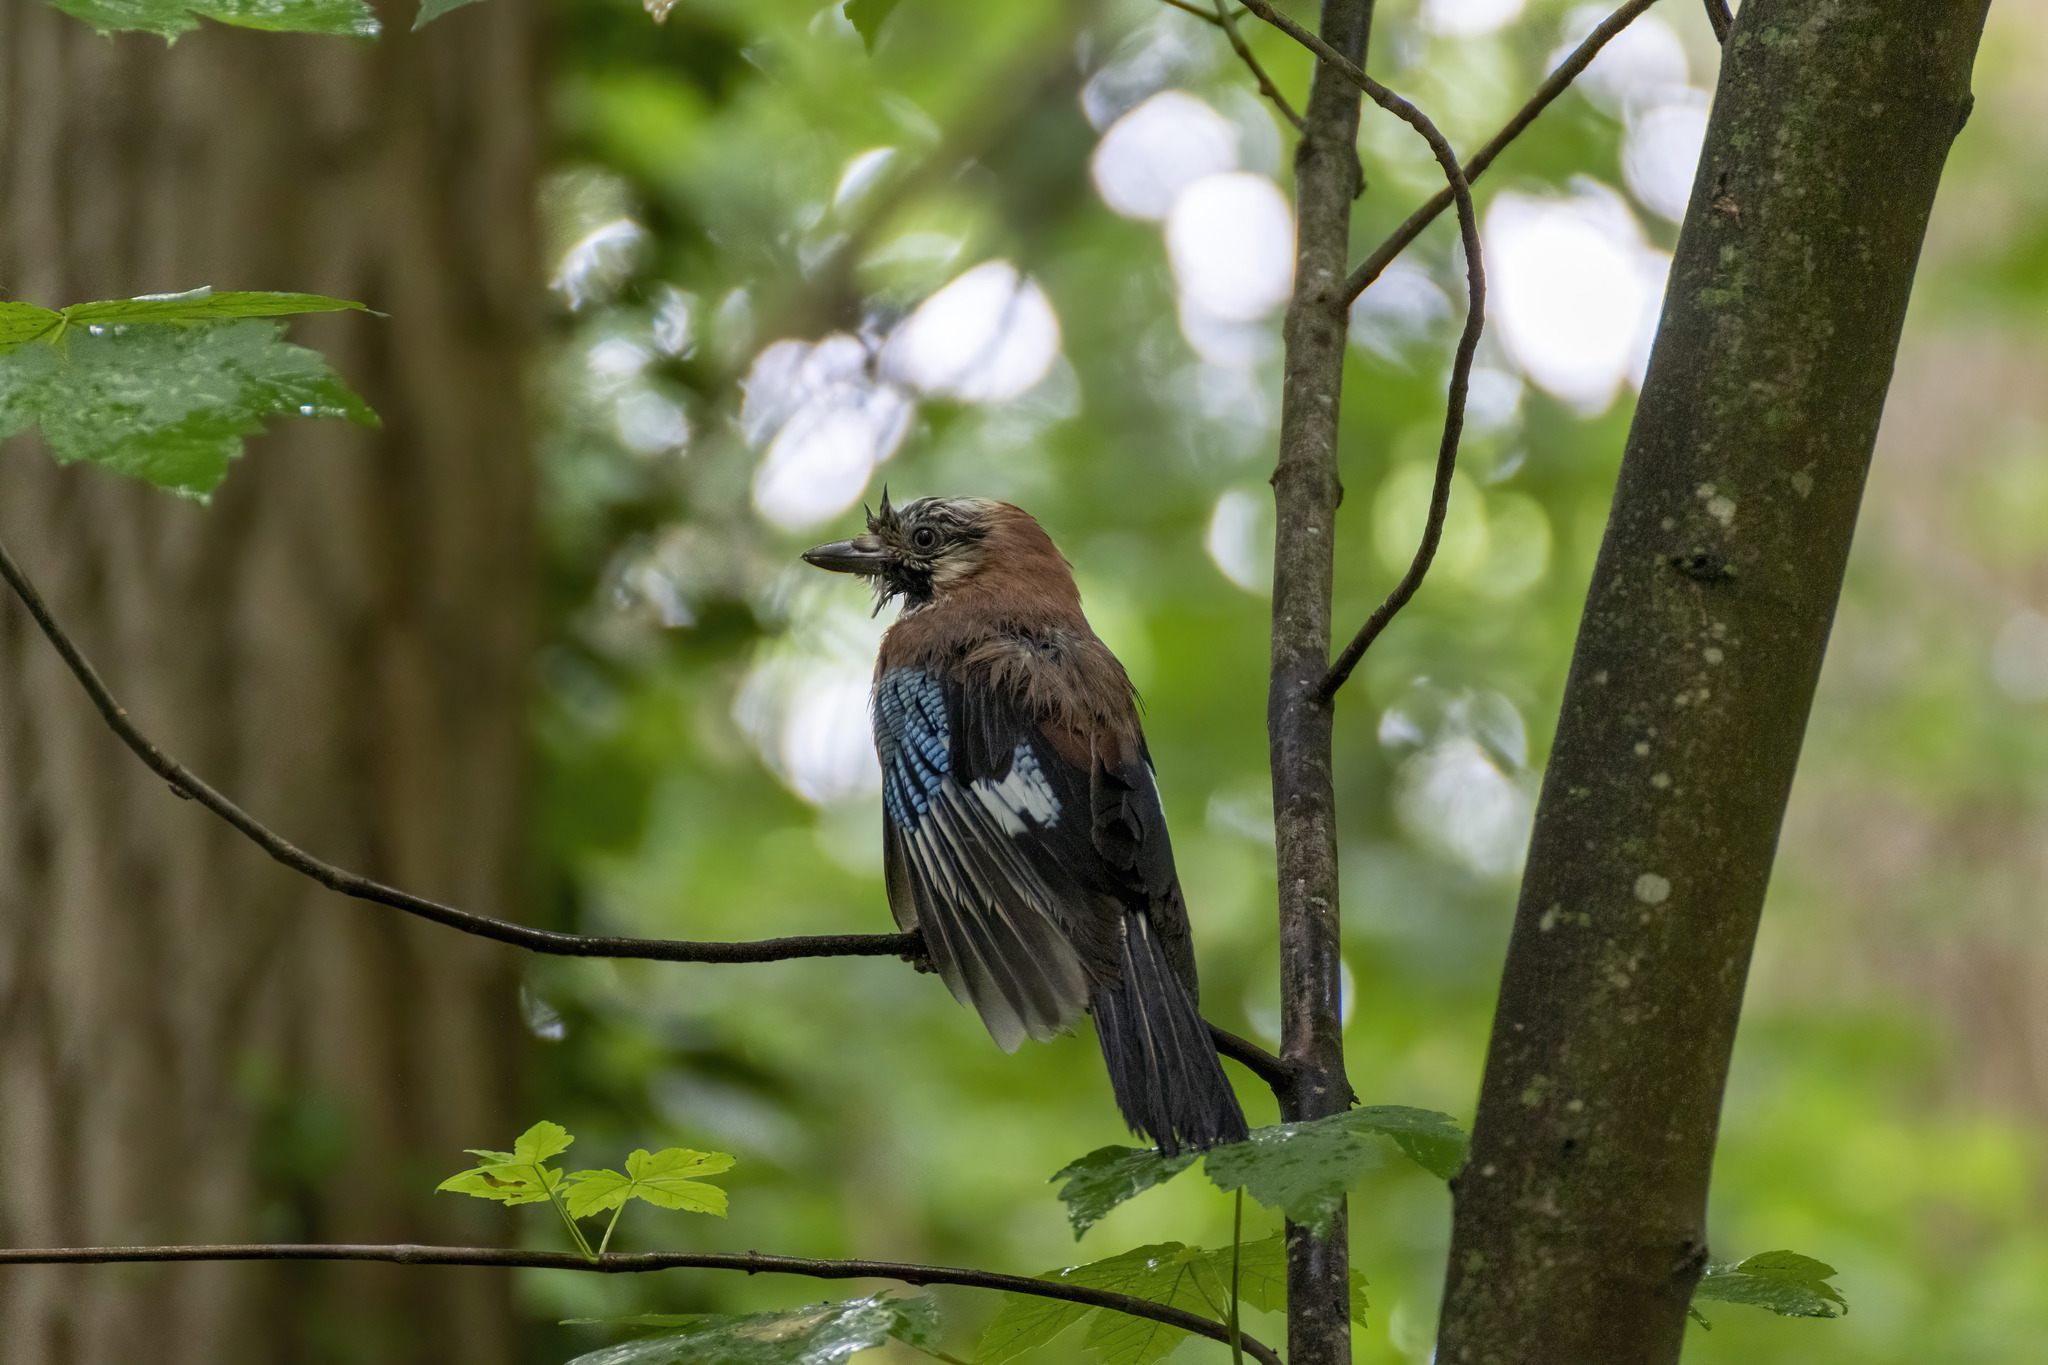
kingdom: Animalia
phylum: Chordata
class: Aves
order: Passeriformes
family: Corvidae
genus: Garrulus
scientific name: Garrulus glandarius
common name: Eurasian jay
